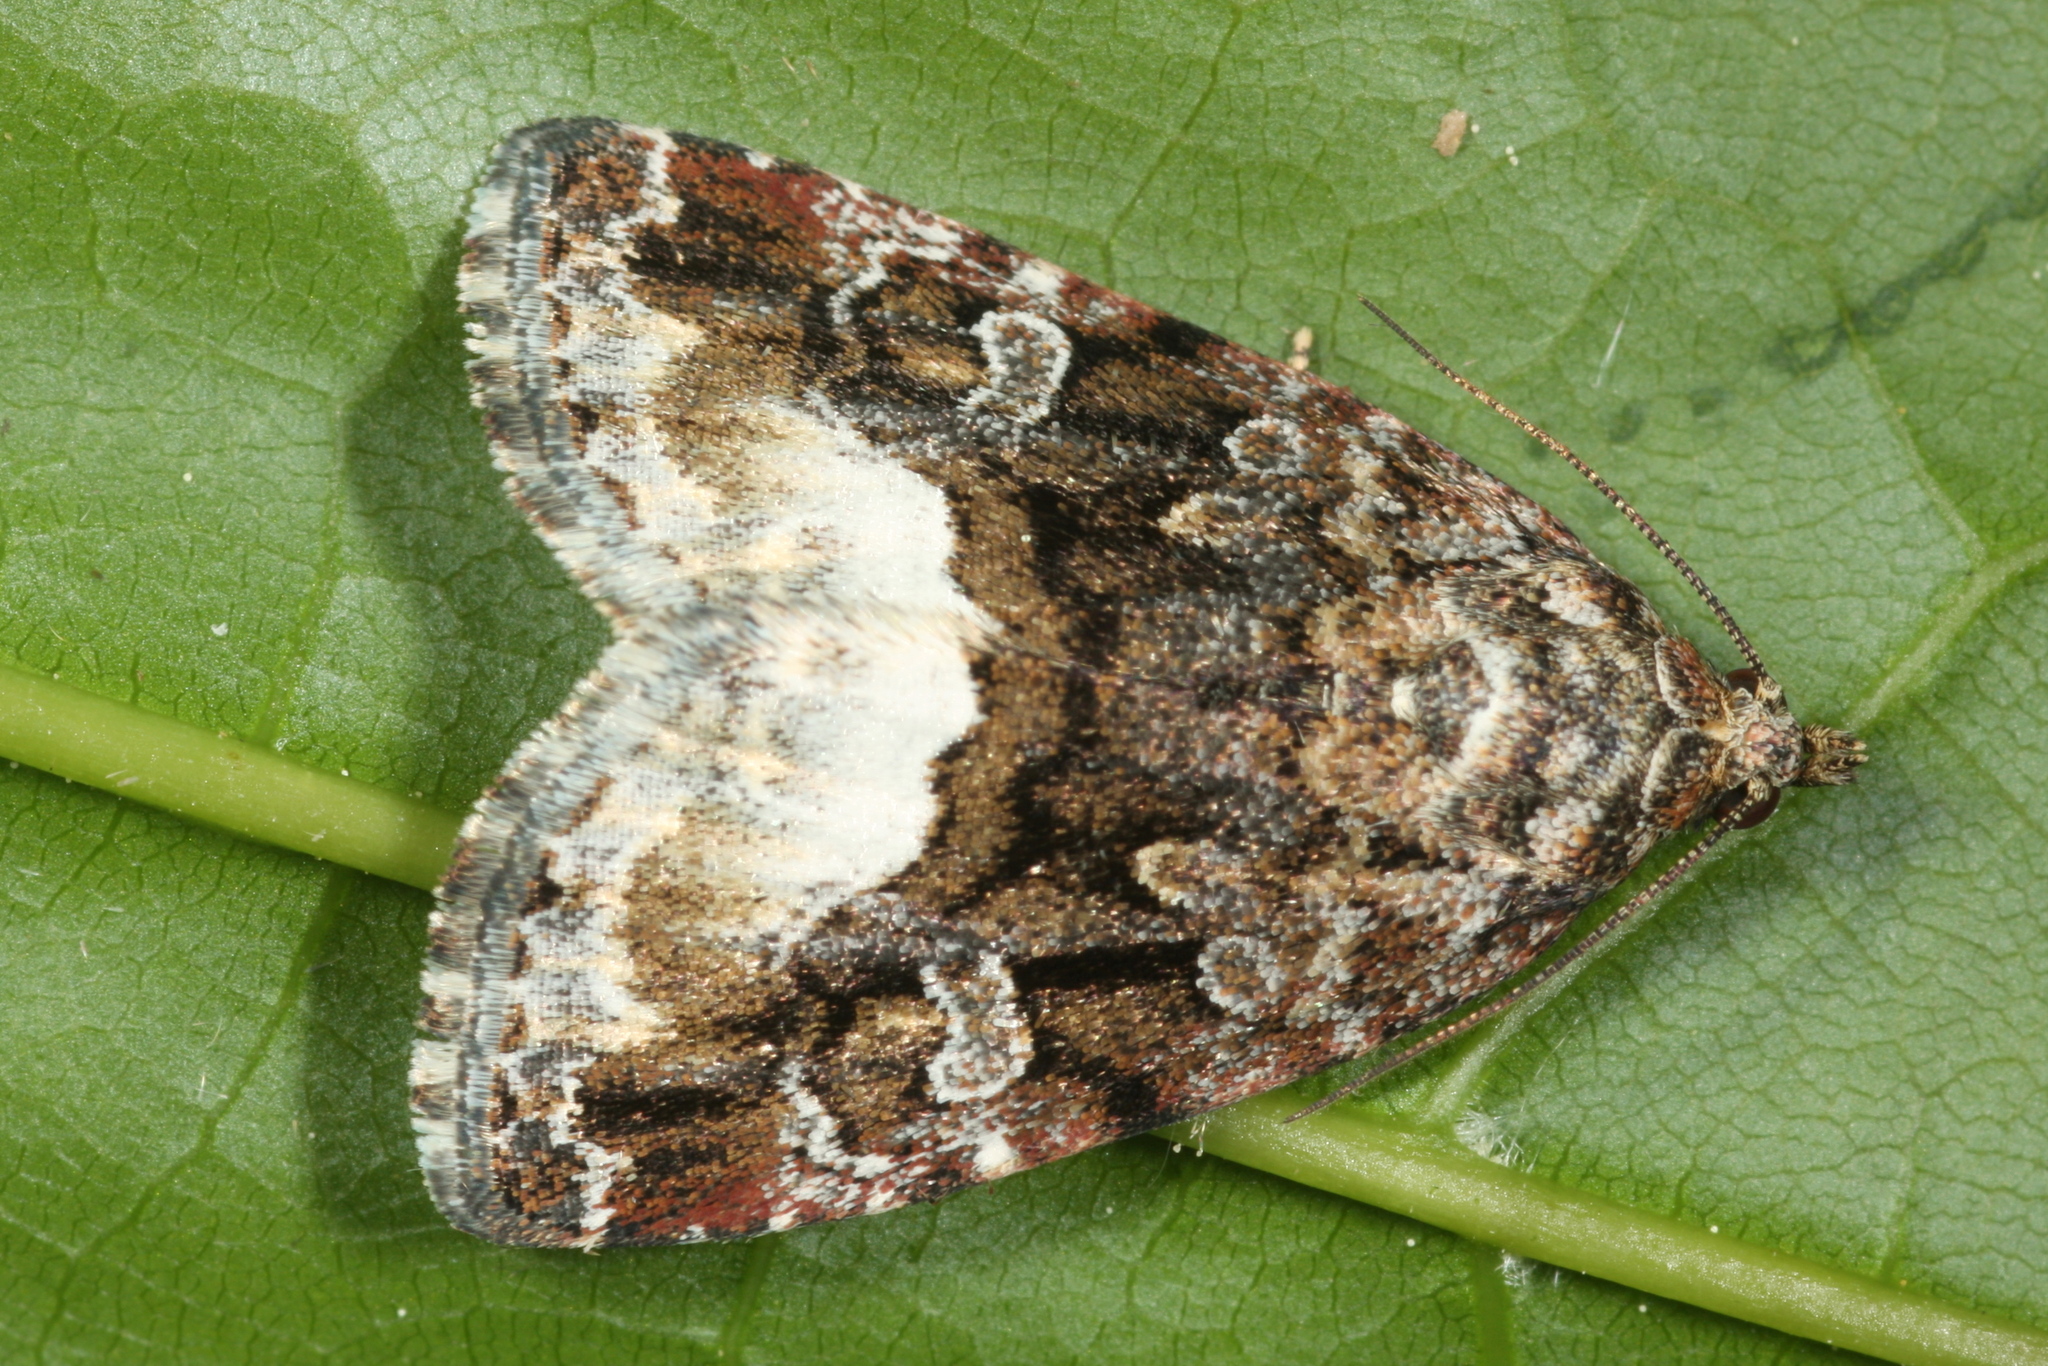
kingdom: Animalia
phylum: Arthropoda
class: Insecta
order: Lepidoptera
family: Noctuidae
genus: Deltote
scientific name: Deltote pygarga
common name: Marbled white spot
